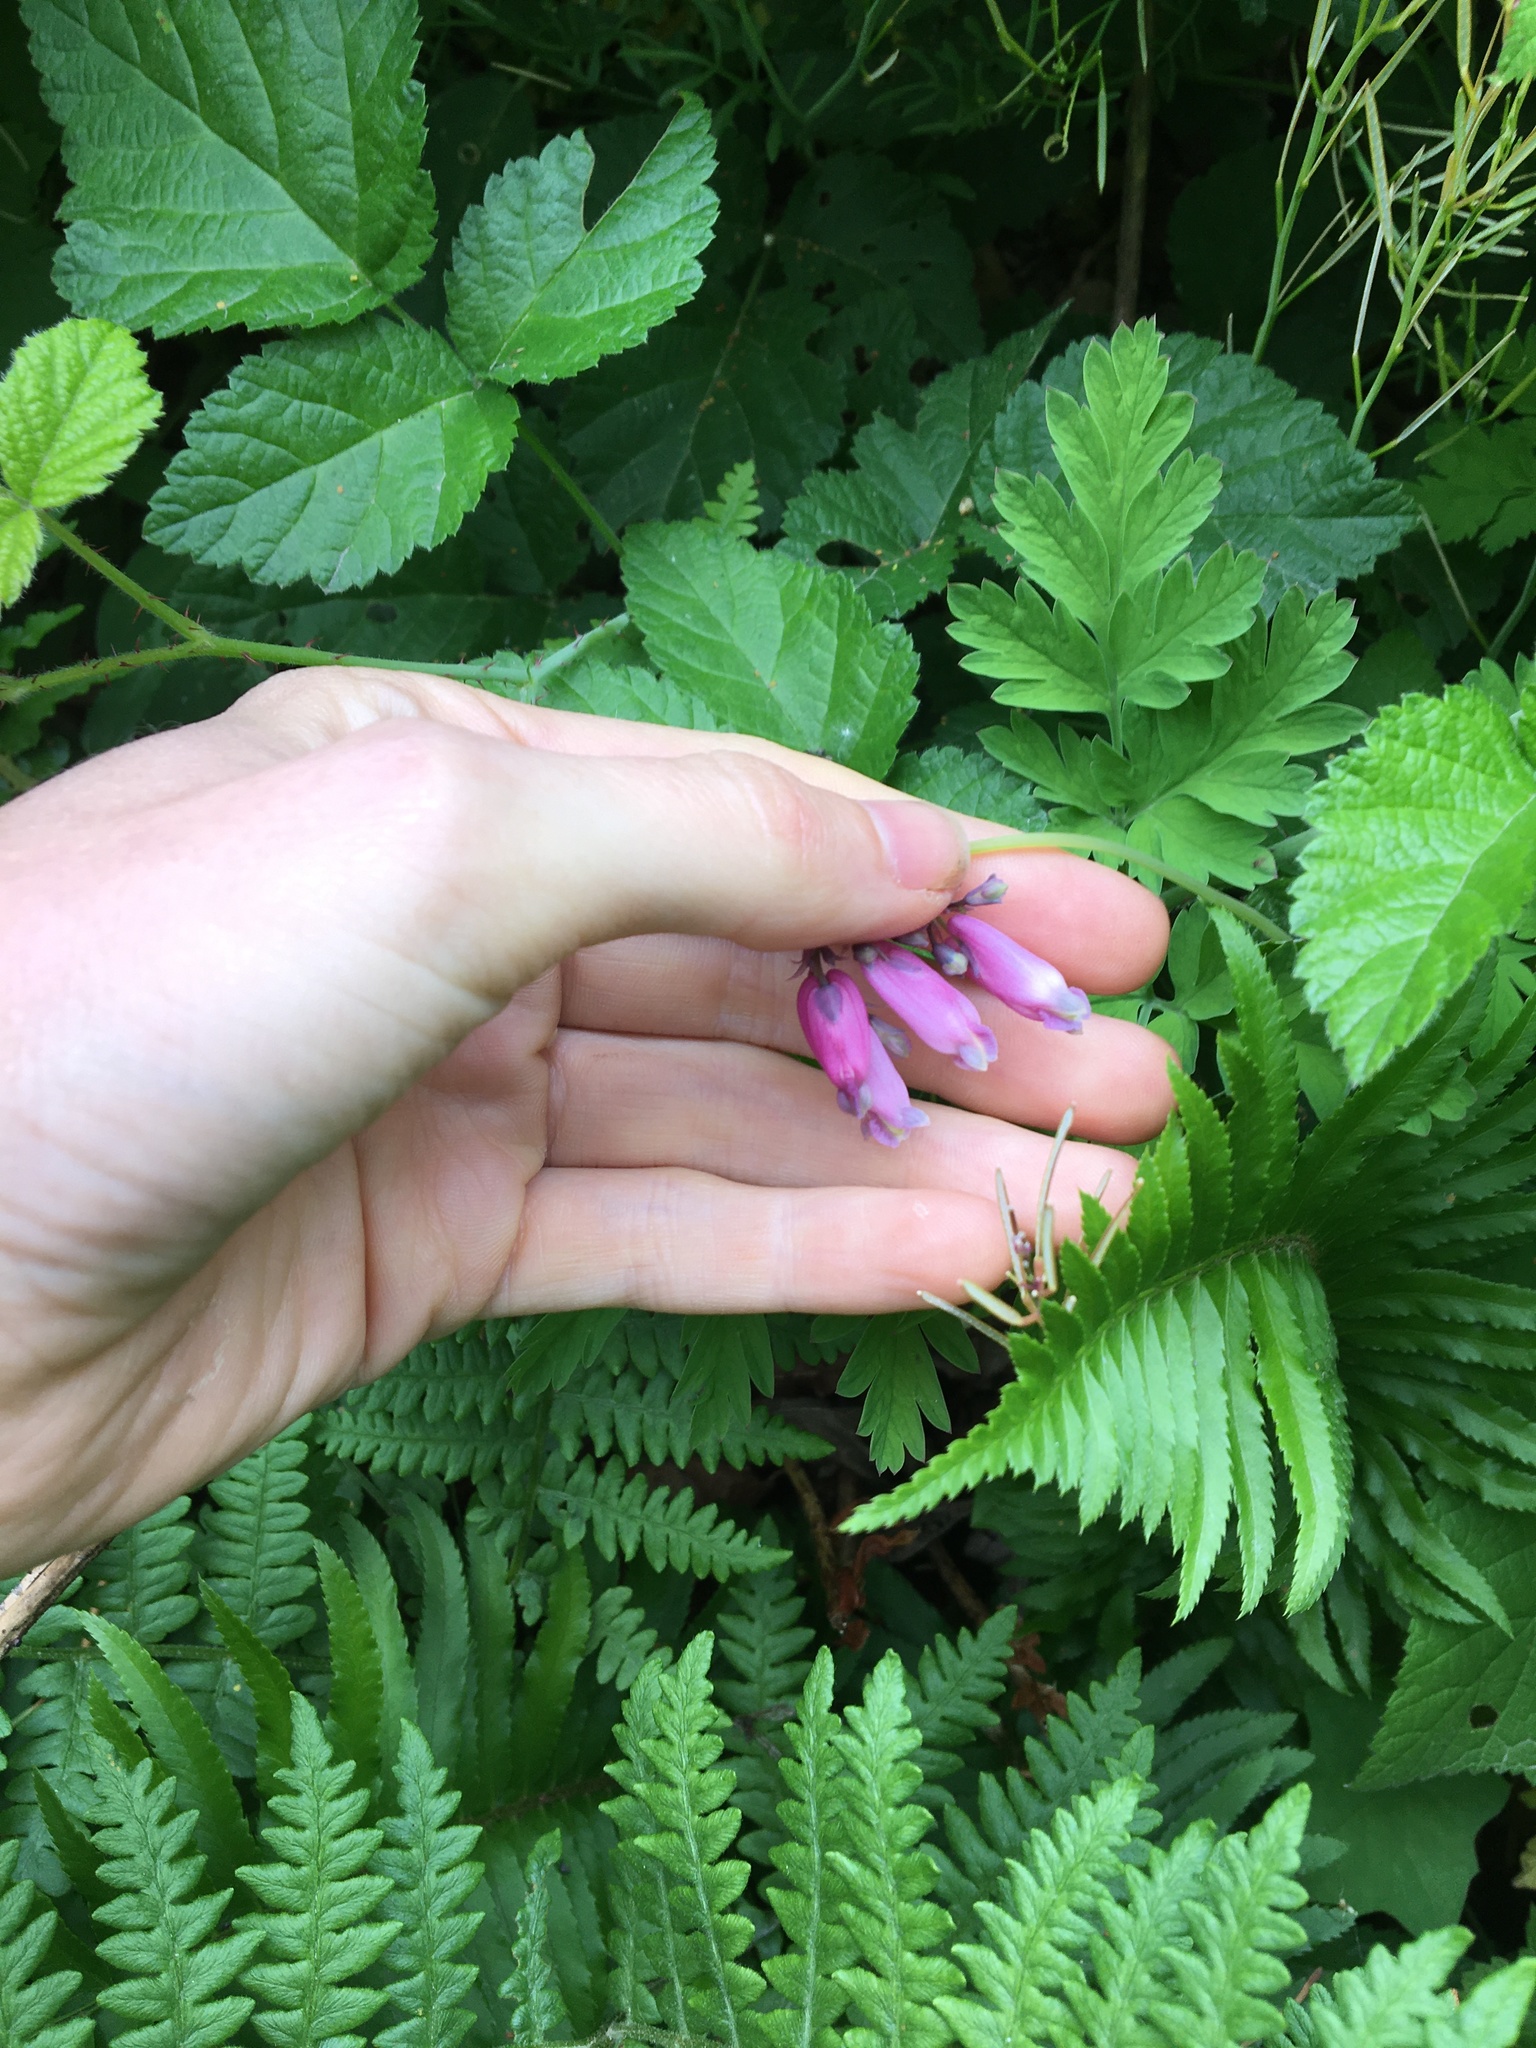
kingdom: Plantae
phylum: Tracheophyta
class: Magnoliopsida
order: Ranunculales
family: Papaveraceae
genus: Dicentra
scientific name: Dicentra formosa
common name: Bleeding-heart
